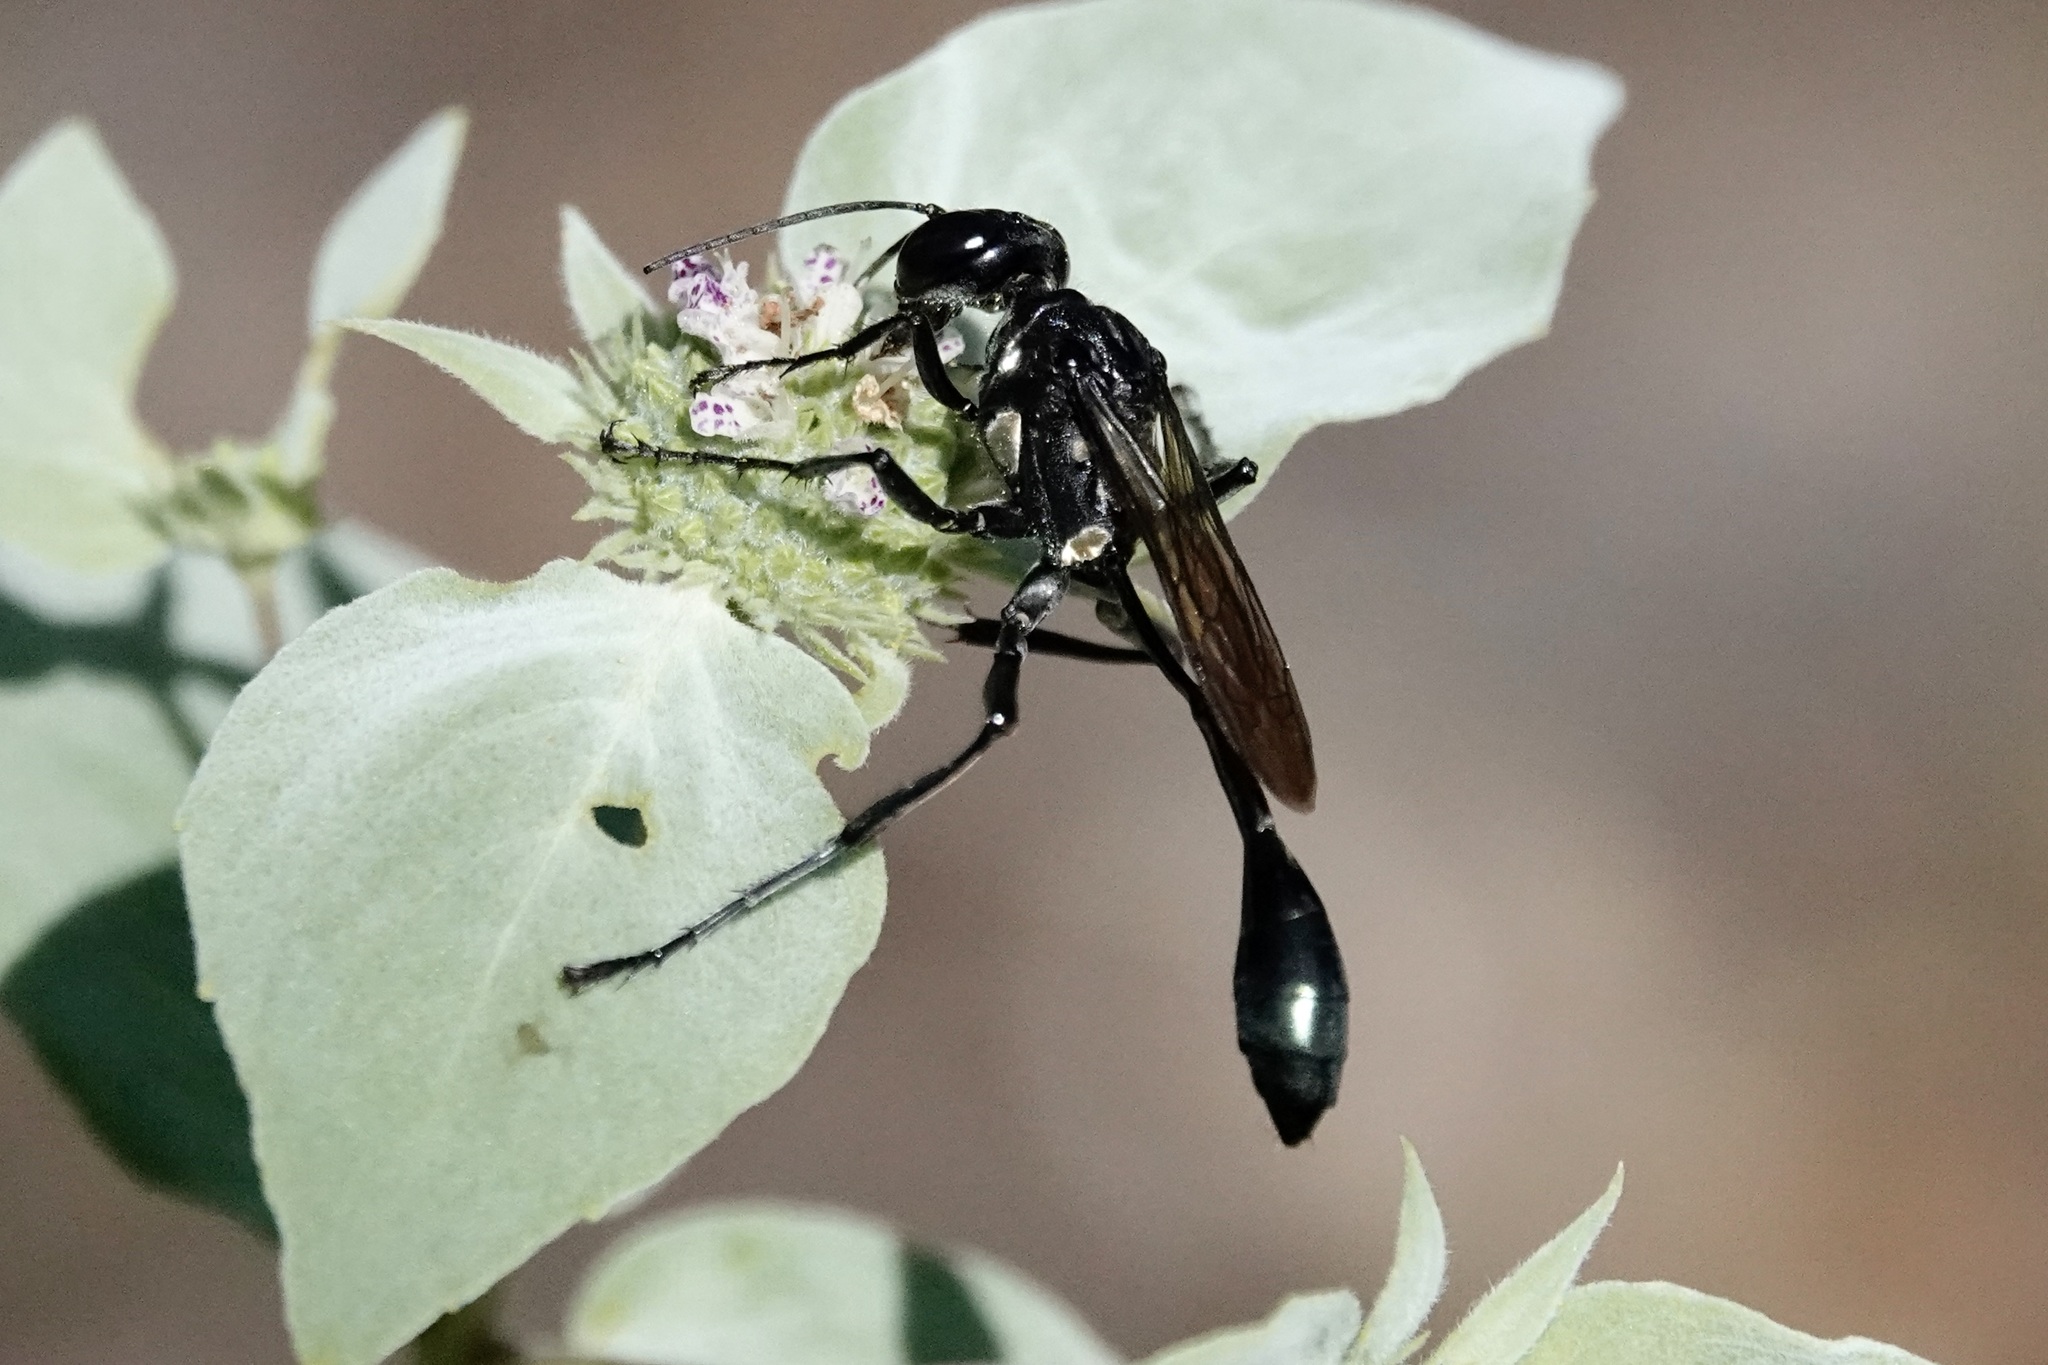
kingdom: Animalia
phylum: Arthropoda
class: Insecta
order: Hymenoptera
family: Sphecidae
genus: Eremnophila
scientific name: Eremnophila aureonotata
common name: Gold-marked thread-waisted wasp
